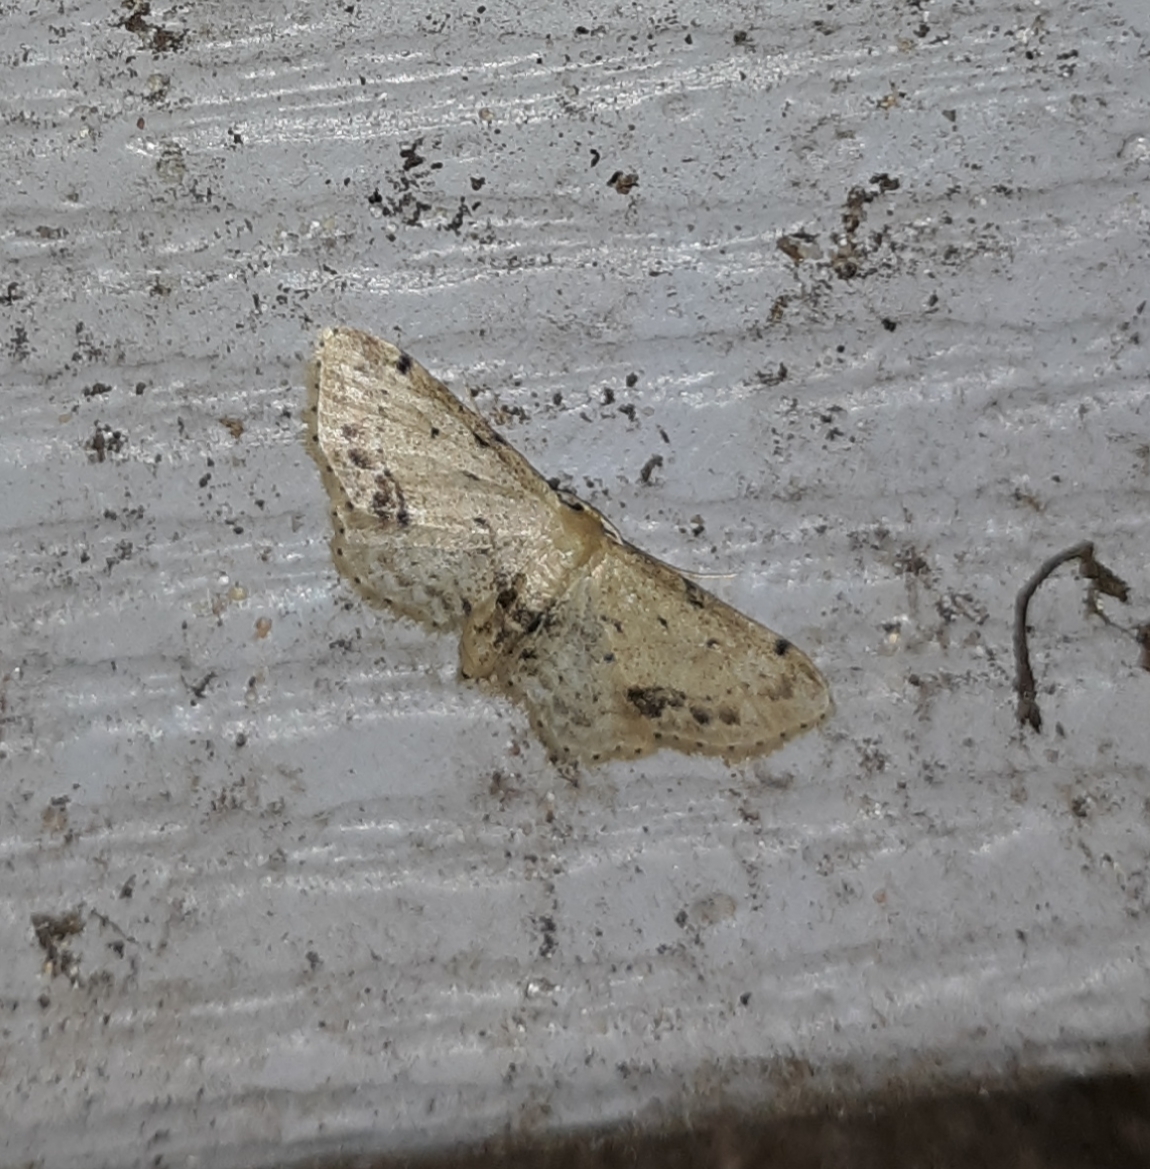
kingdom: Animalia
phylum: Arthropoda
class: Insecta
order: Lepidoptera
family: Geometridae
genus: Idaea
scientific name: Idaea dimidiata
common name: Single-dotted wave
